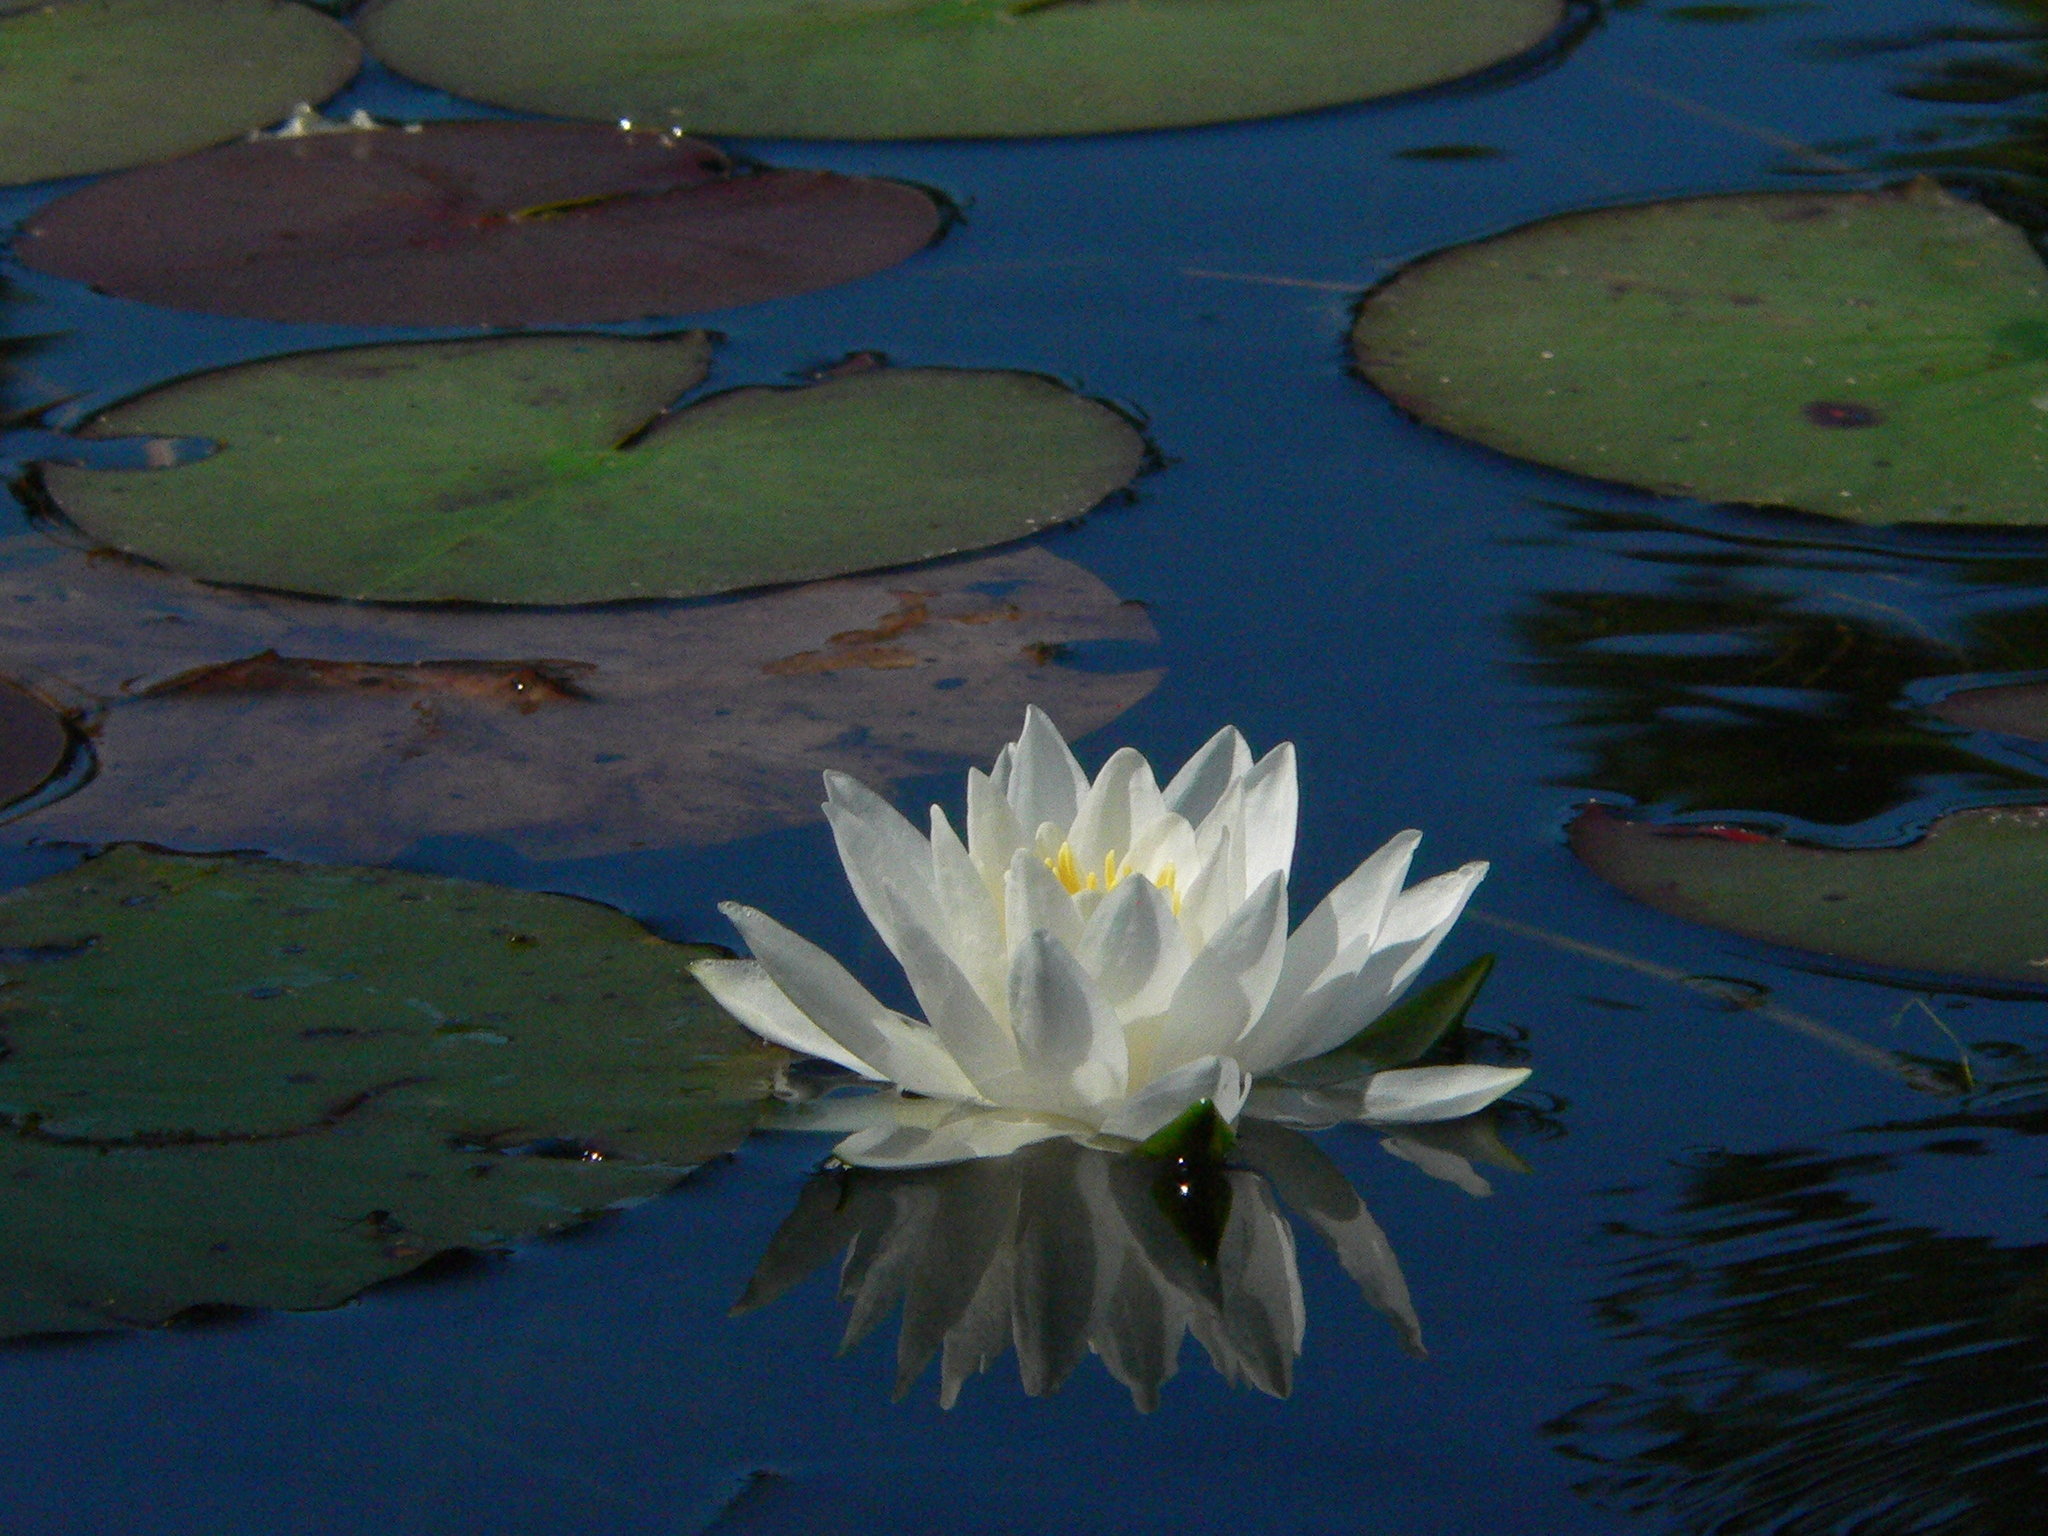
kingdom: Plantae
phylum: Tracheophyta
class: Magnoliopsida
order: Nymphaeales
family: Nymphaeaceae
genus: Nymphaea
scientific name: Nymphaea odorata
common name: Fragrant water-lily
